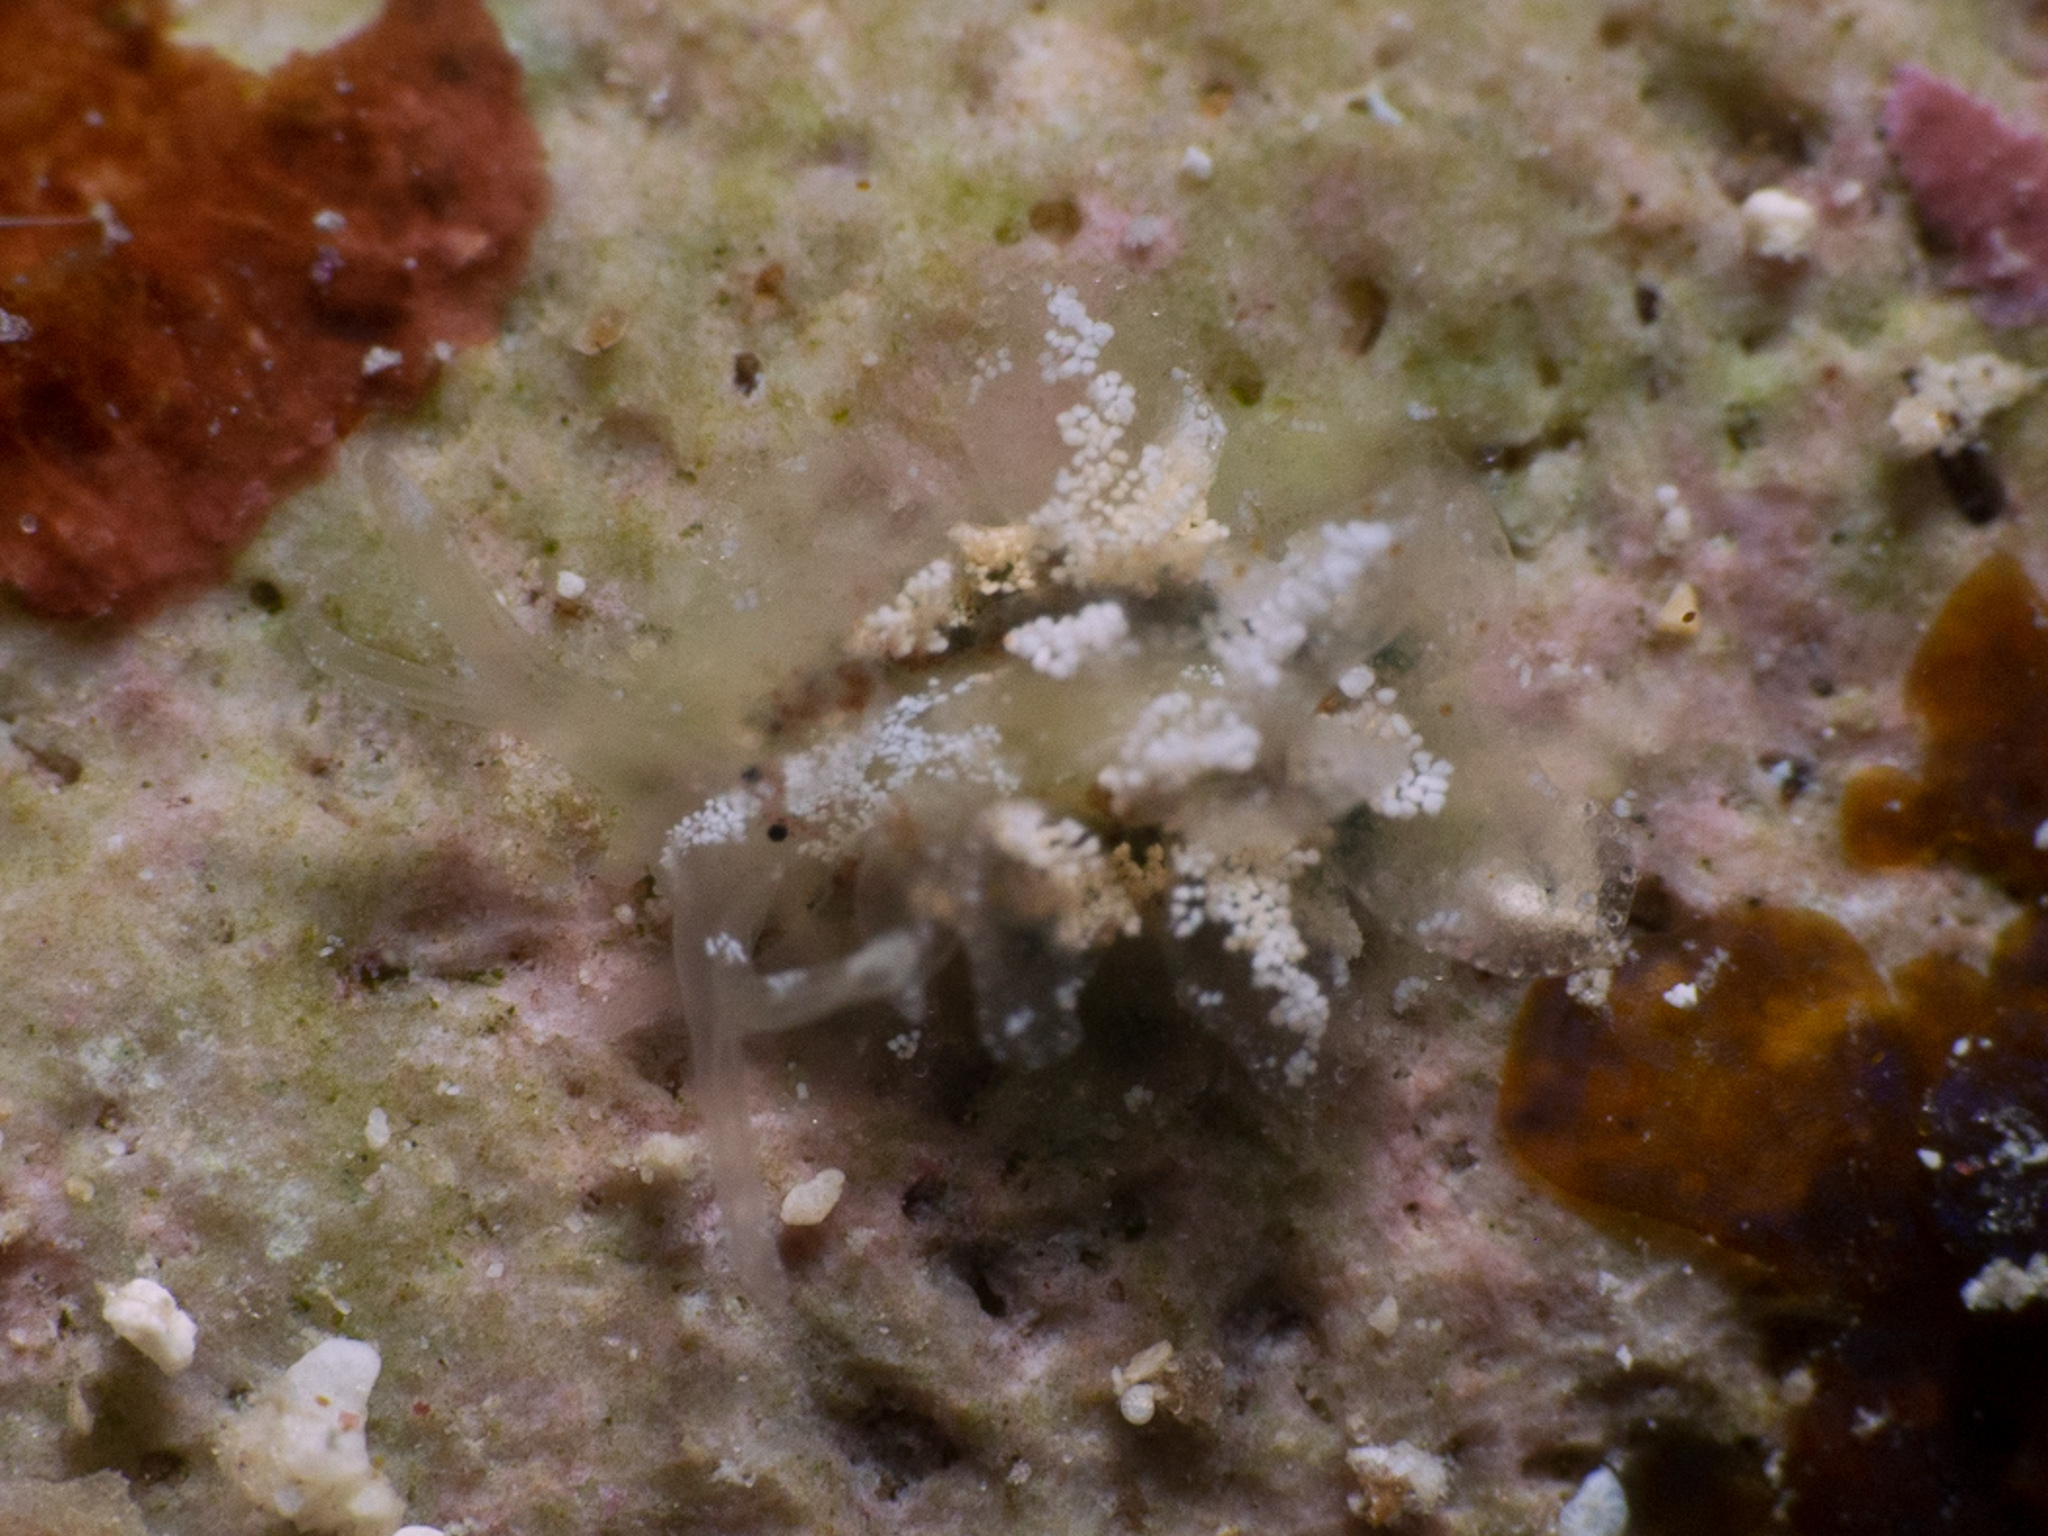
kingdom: Animalia
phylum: Mollusca
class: Gastropoda
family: Hermaeidae
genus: Hermaea
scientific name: Hermaea cruciata
